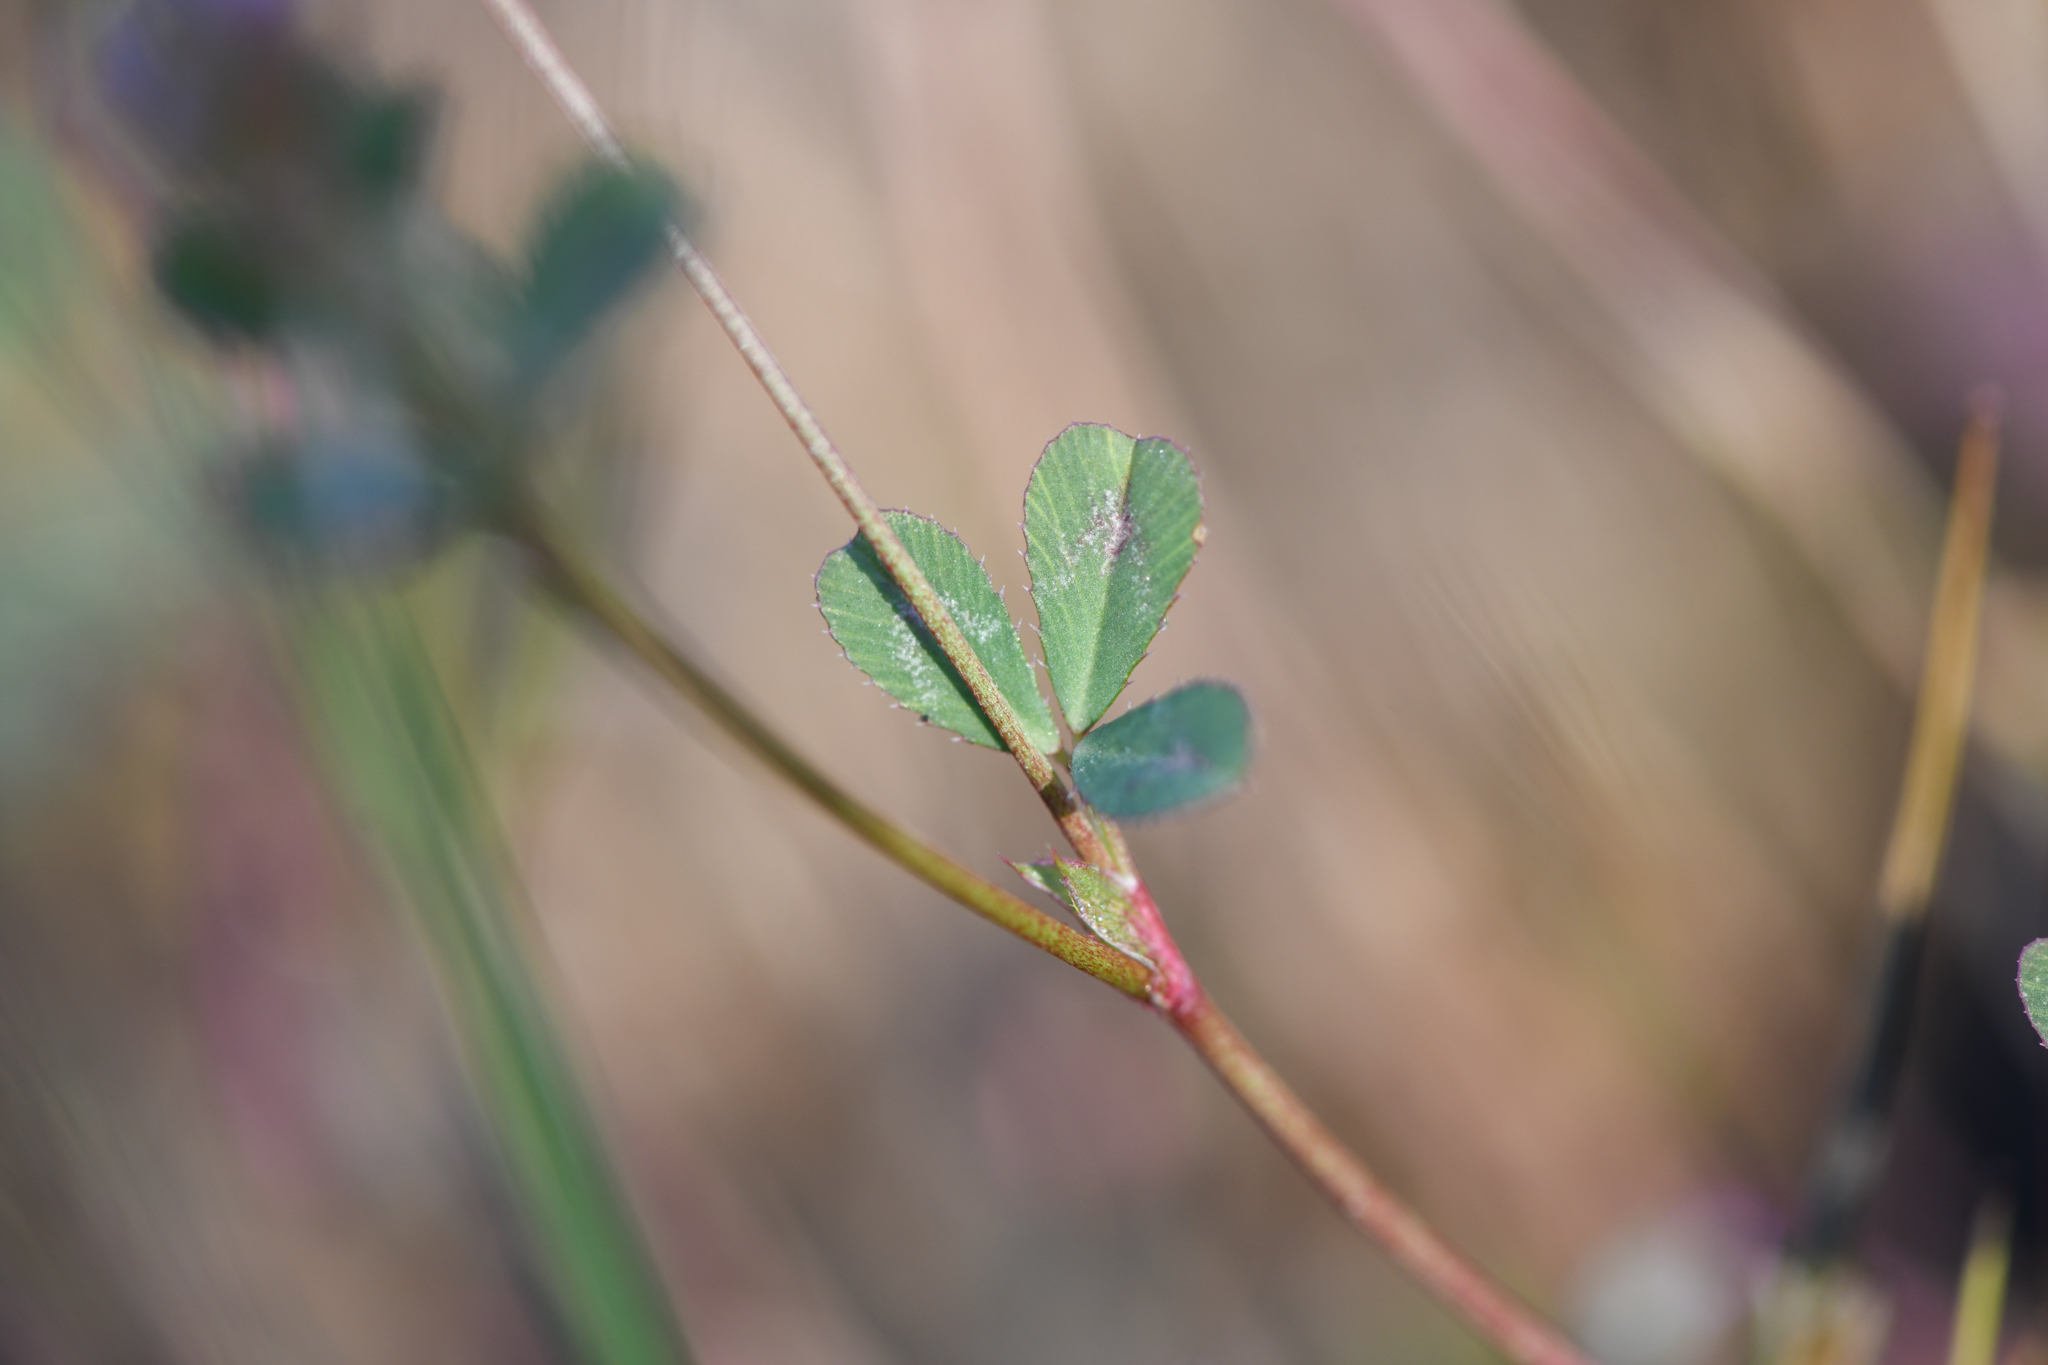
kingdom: Plantae
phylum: Tracheophyta
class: Magnoliopsida
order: Fabales
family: Fabaceae
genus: Trifolium
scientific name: Trifolium gracilentum
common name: Slender clover
